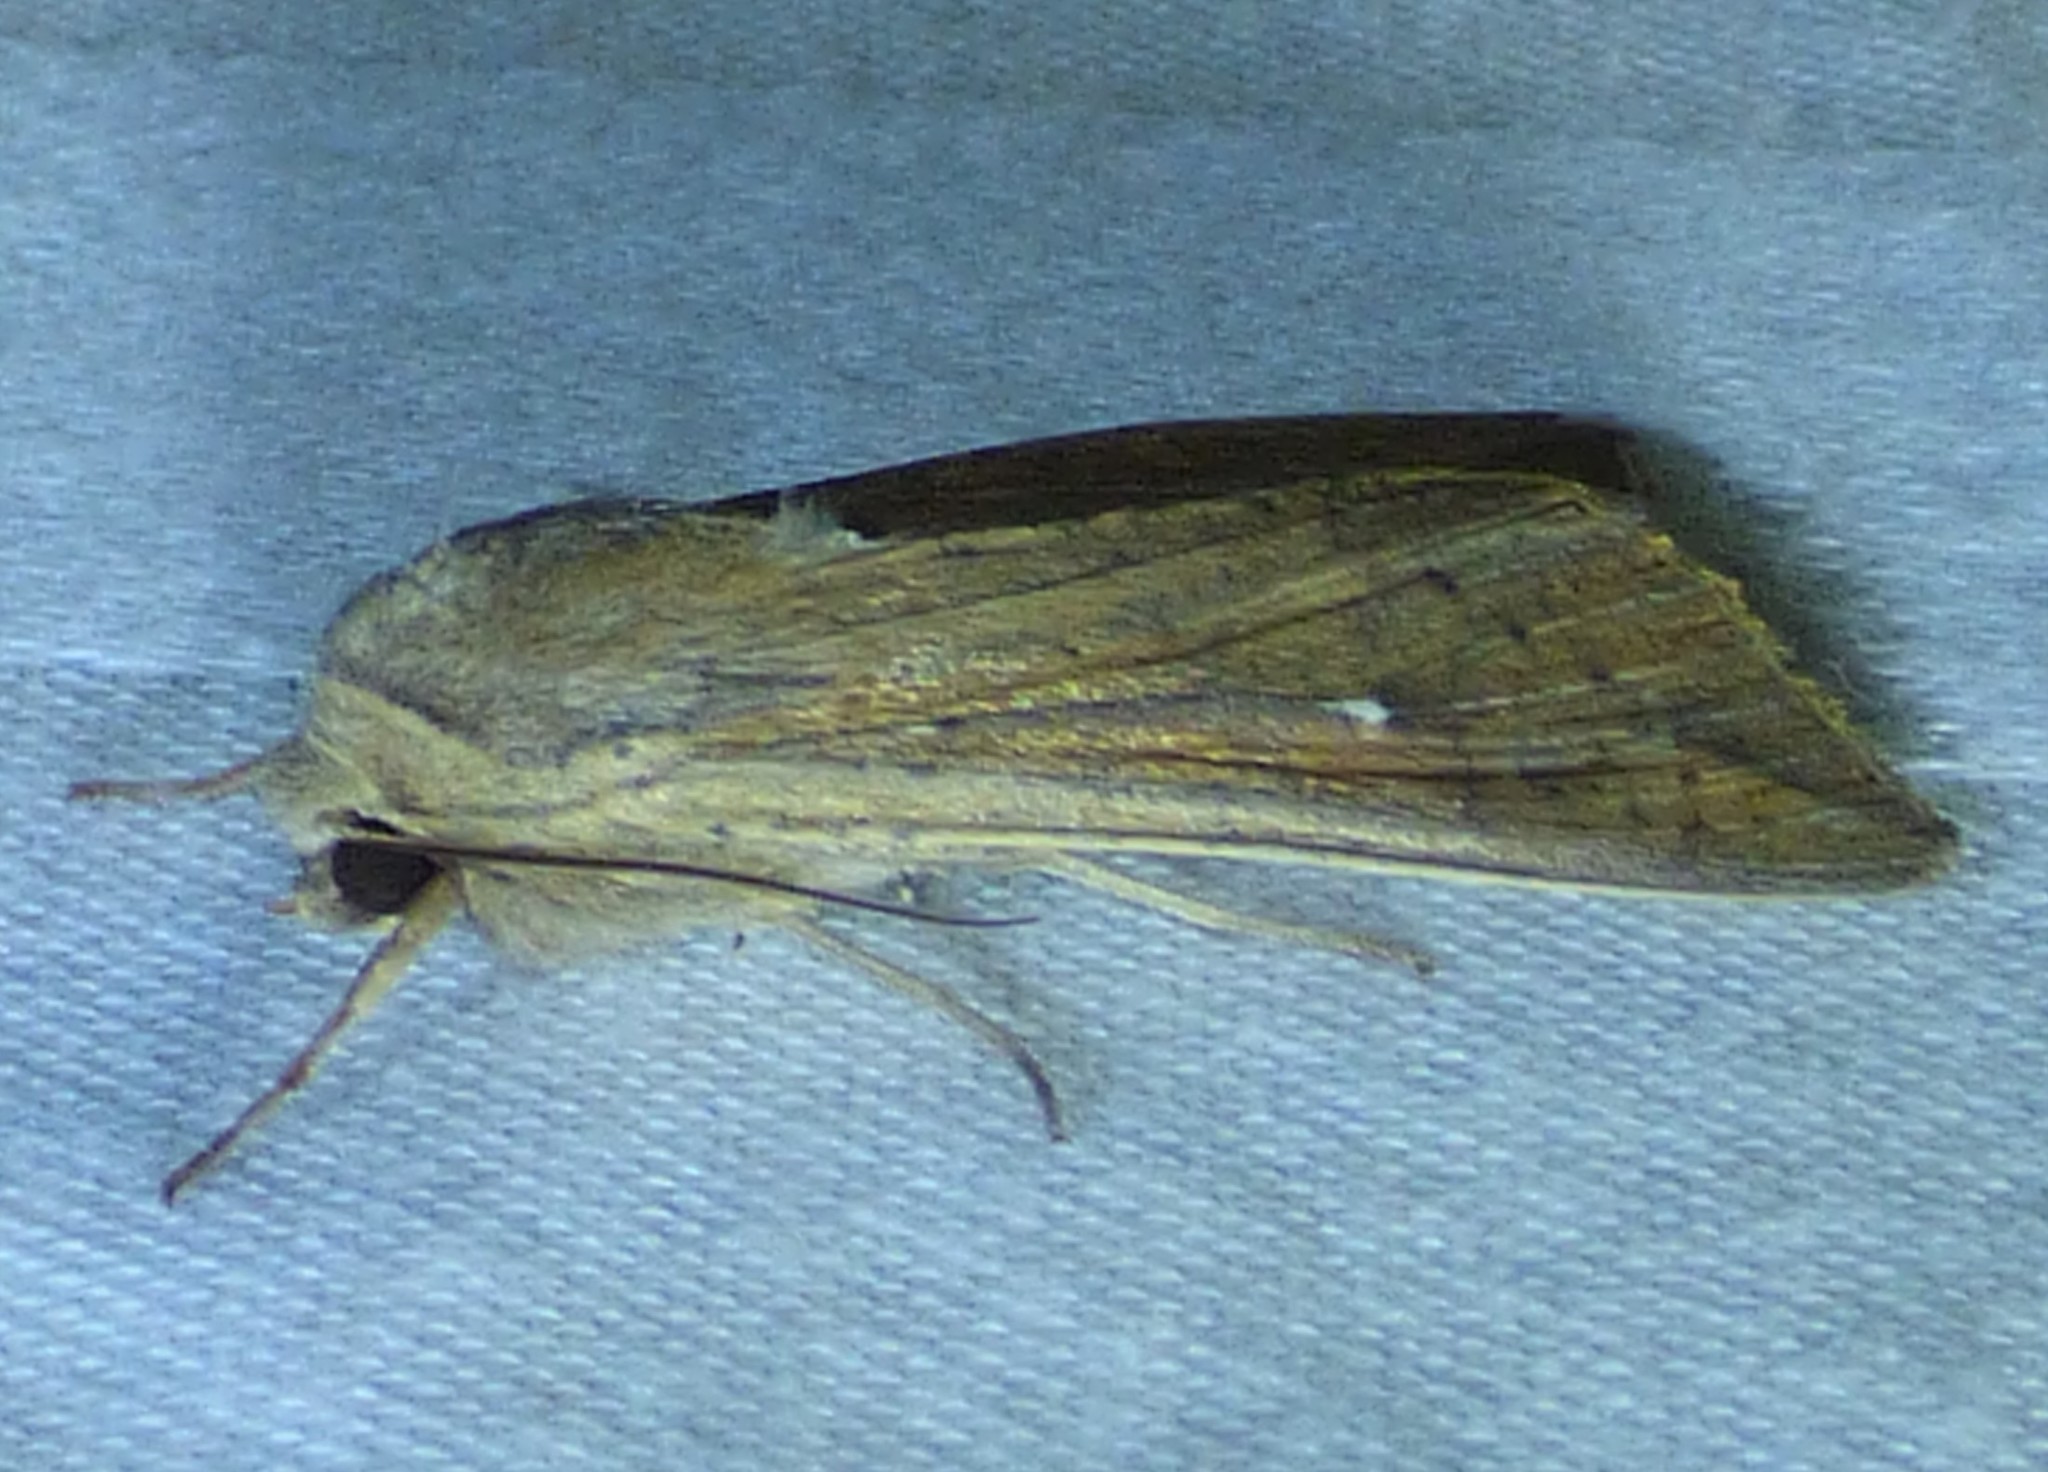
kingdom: Animalia
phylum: Arthropoda
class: Insecta
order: Lepidoptera
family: Noctuidae
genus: Mythimna
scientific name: Mythimna unipuncta
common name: White-speck
